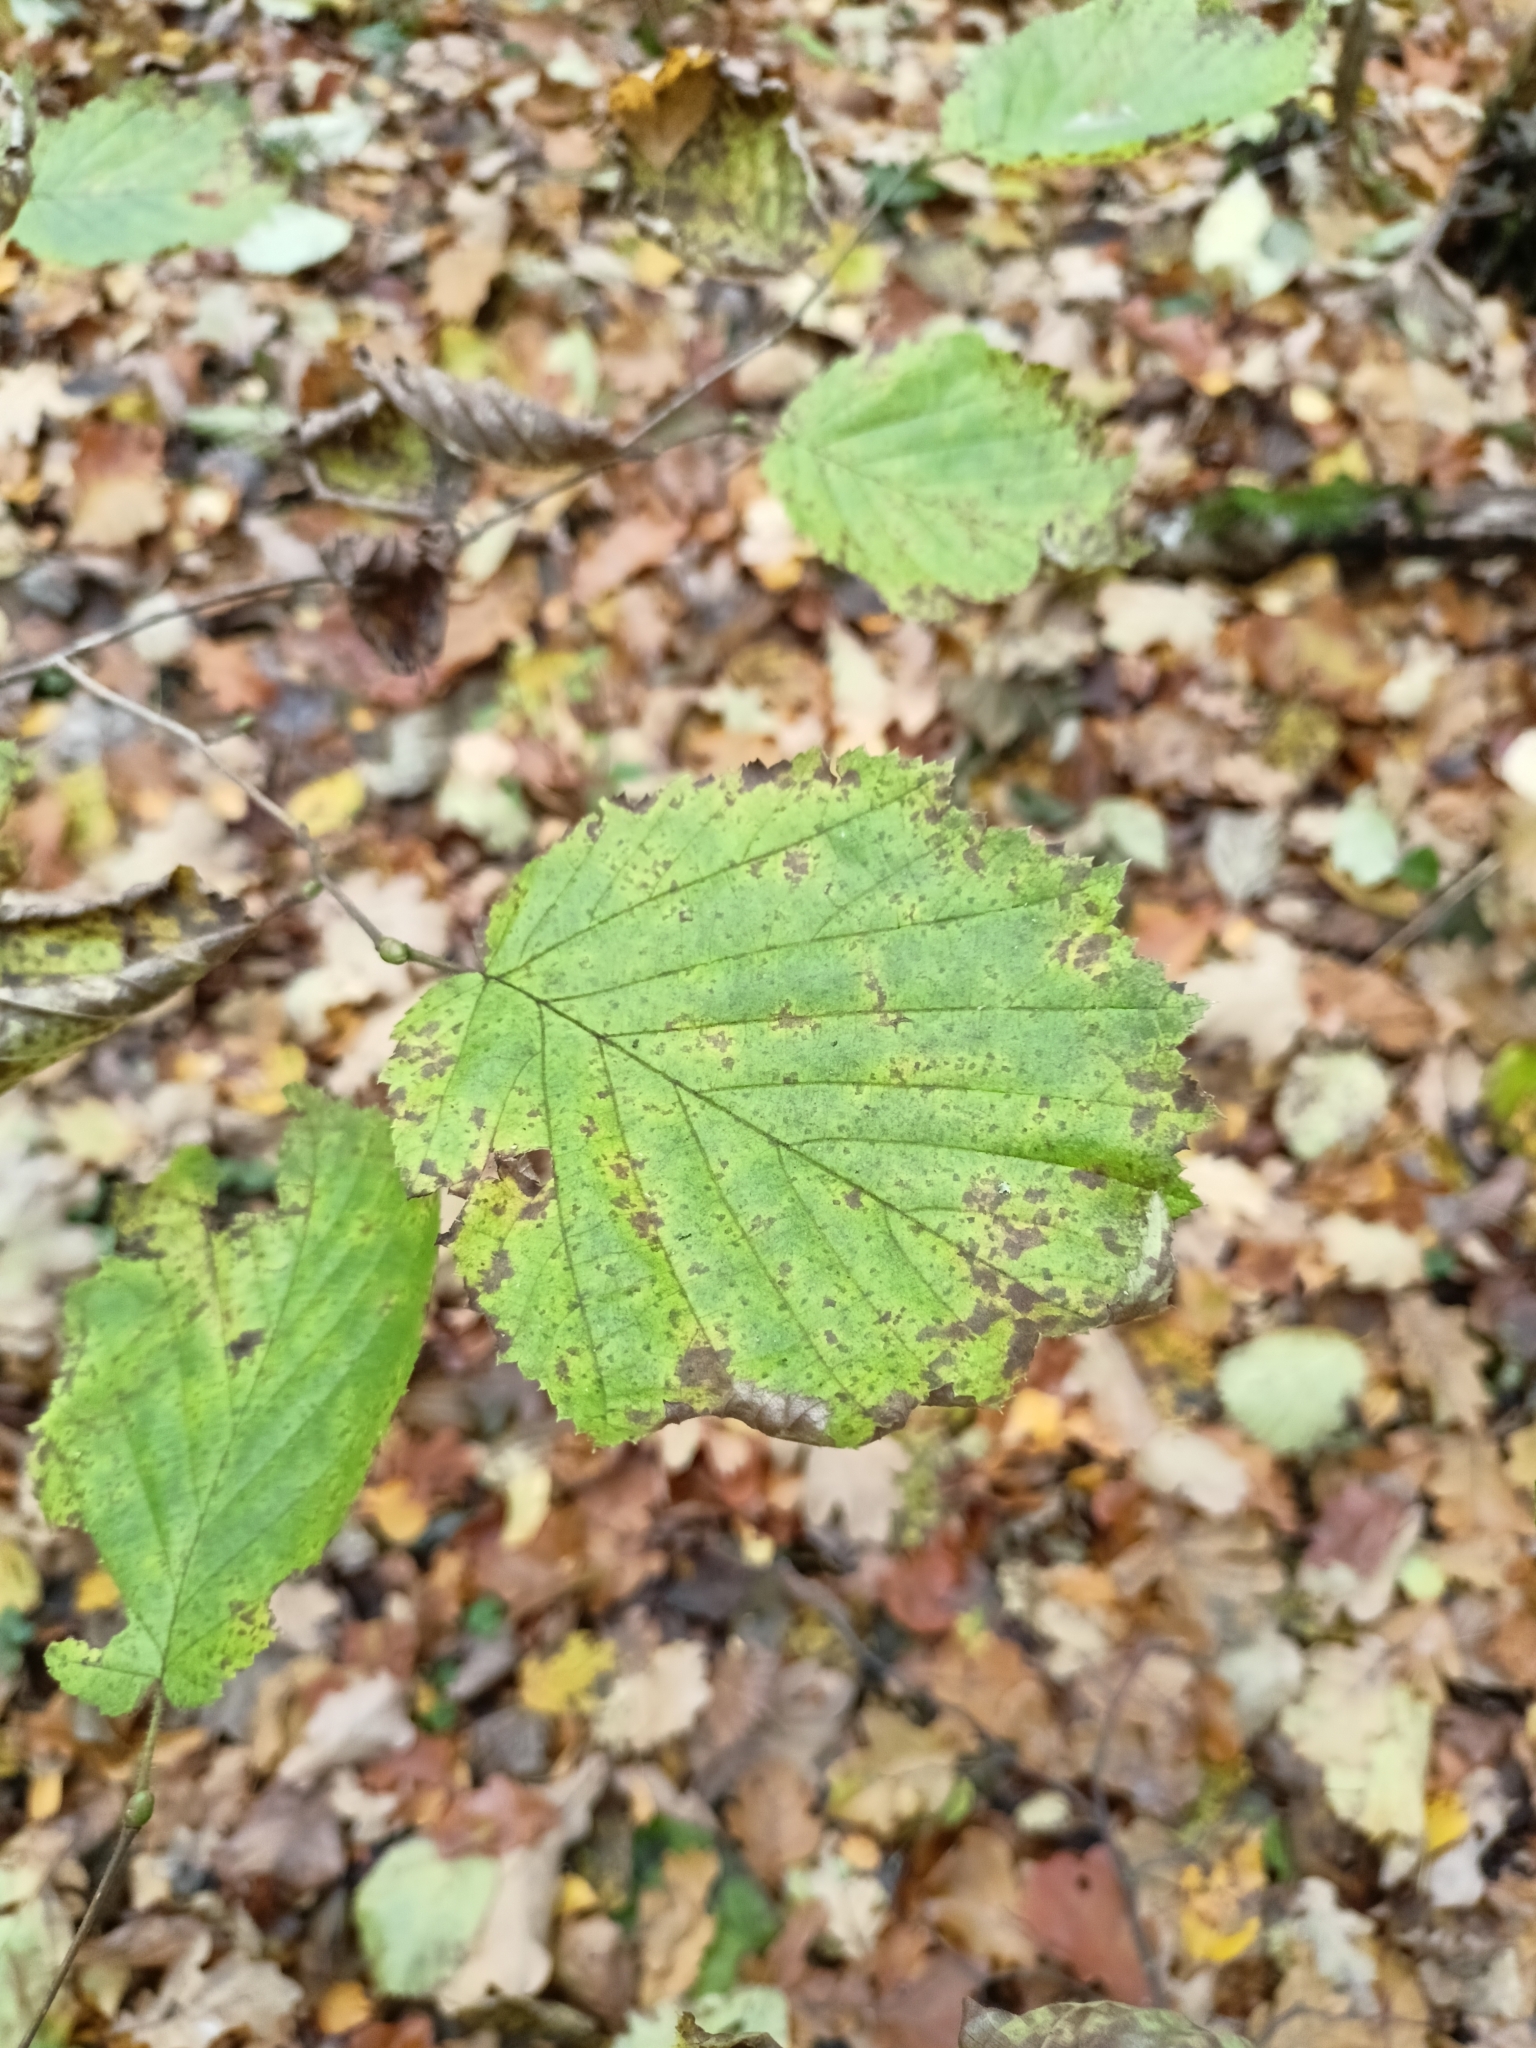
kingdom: Plantae
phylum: Tracheophyta
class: Magnoliopsida
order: Fagales
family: Betulaceae
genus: Corylus
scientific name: Corylus avellana
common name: European hazel
